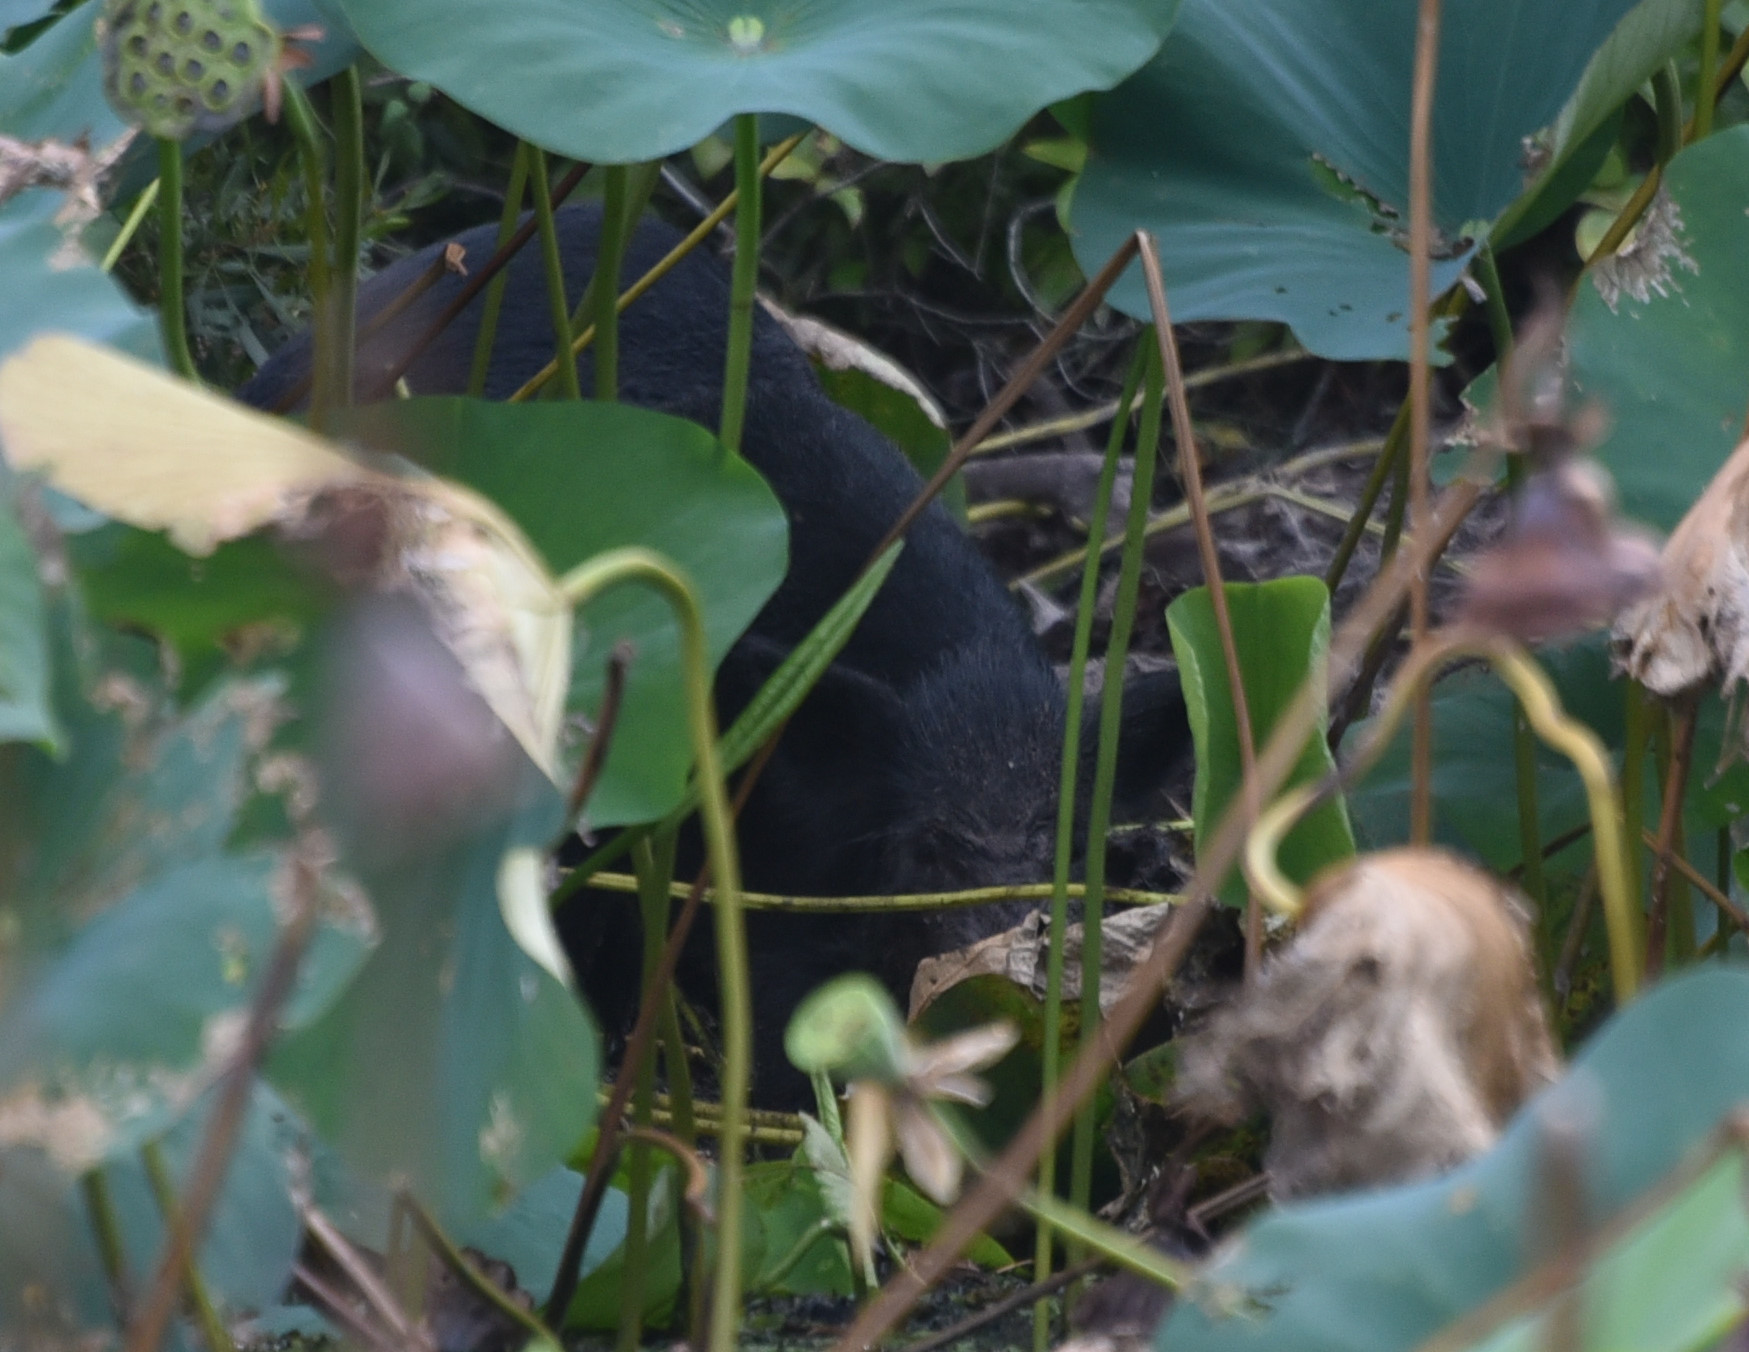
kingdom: Animalia
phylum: Chordata
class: Mammalia
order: Artiodactyla
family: Suidae
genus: Sus
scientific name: Sus scrofa
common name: Wild boar
